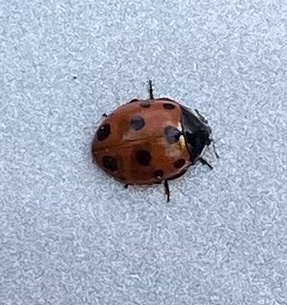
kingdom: Animalia
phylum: Arthropoda
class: Insecta
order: Coleoptera
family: Coccinellidae
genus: Coccinella
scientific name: Coccinella undecimpunctata
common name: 11-spot ladybird
